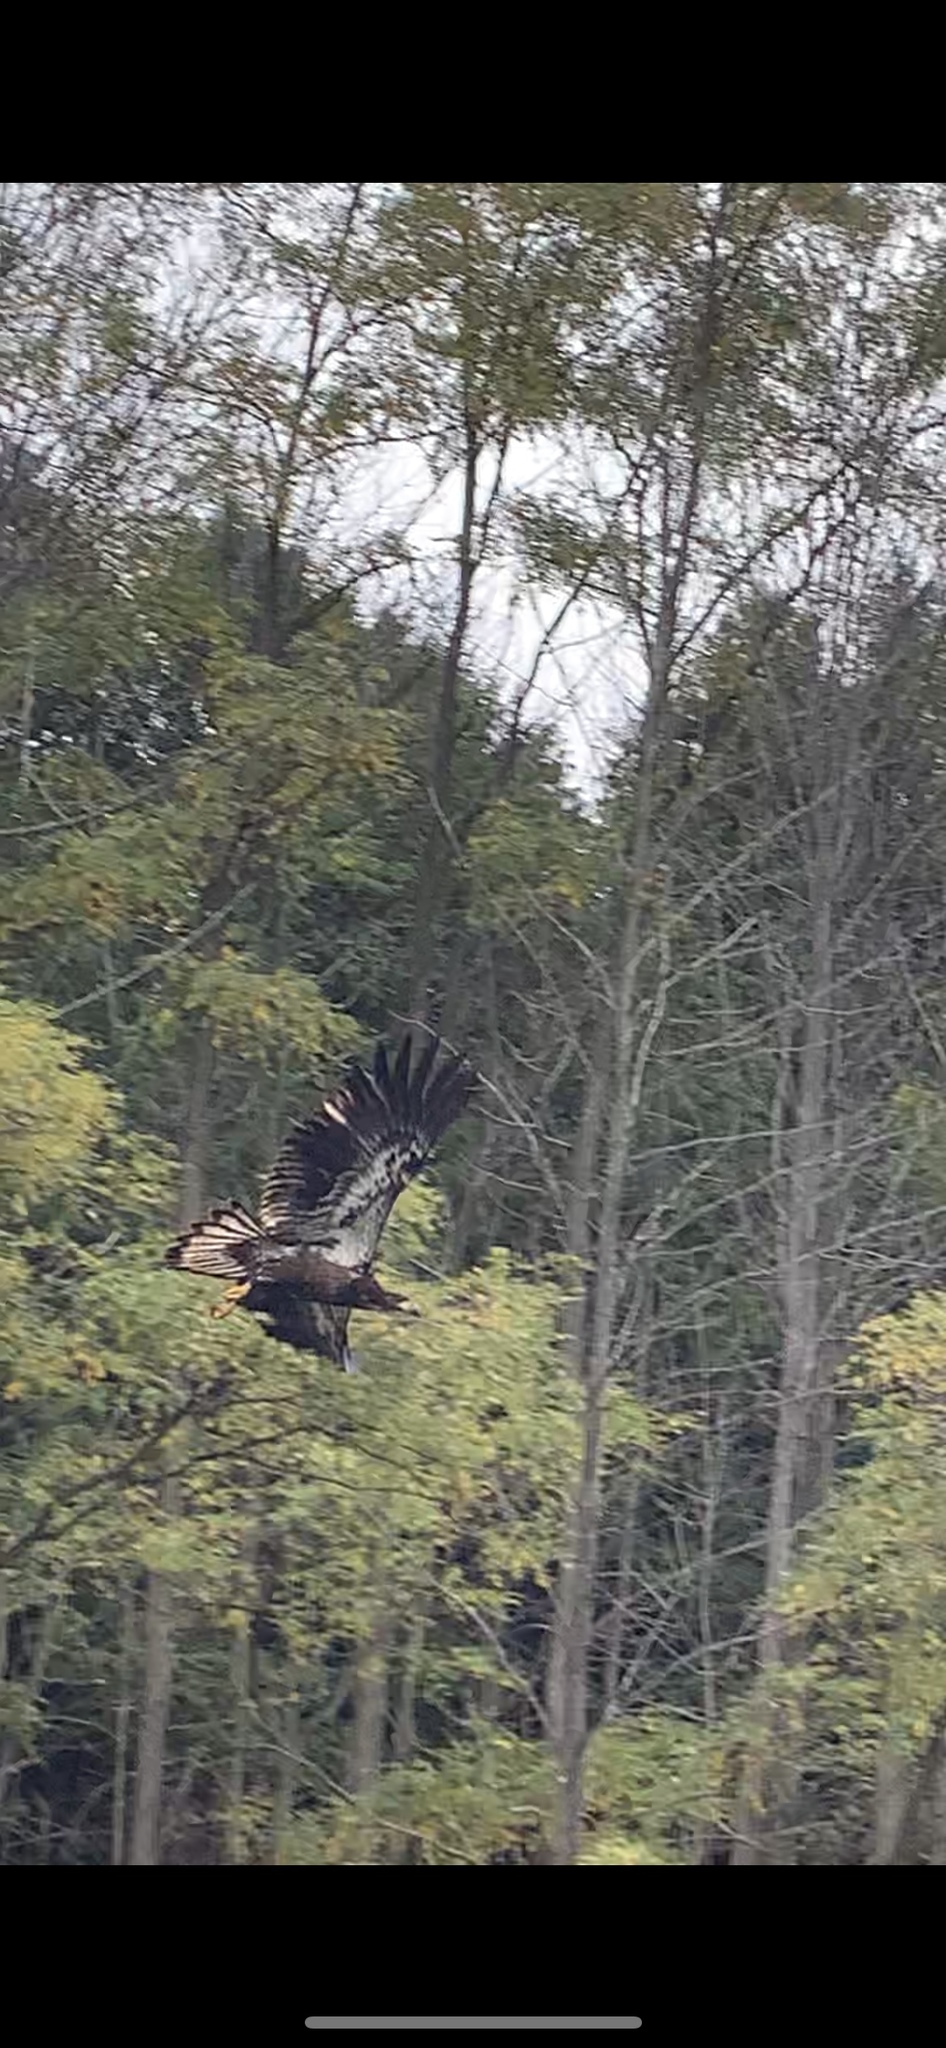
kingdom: Animalia
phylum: Chordata
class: Aves
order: Accipitriformes
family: Accipitridae
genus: Haliaeetus
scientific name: Haliaeetus leucocephalus
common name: Bald eagle
